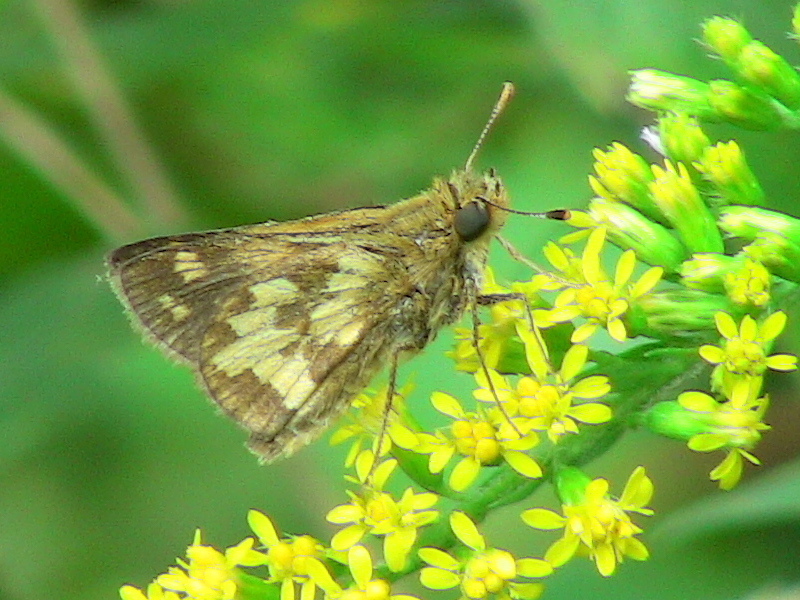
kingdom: Animalia
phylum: Arthropoda
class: Insecta
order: Lepidoptera
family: Hesperiidae
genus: Polites
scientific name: Polites coras
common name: Peck's skipper
